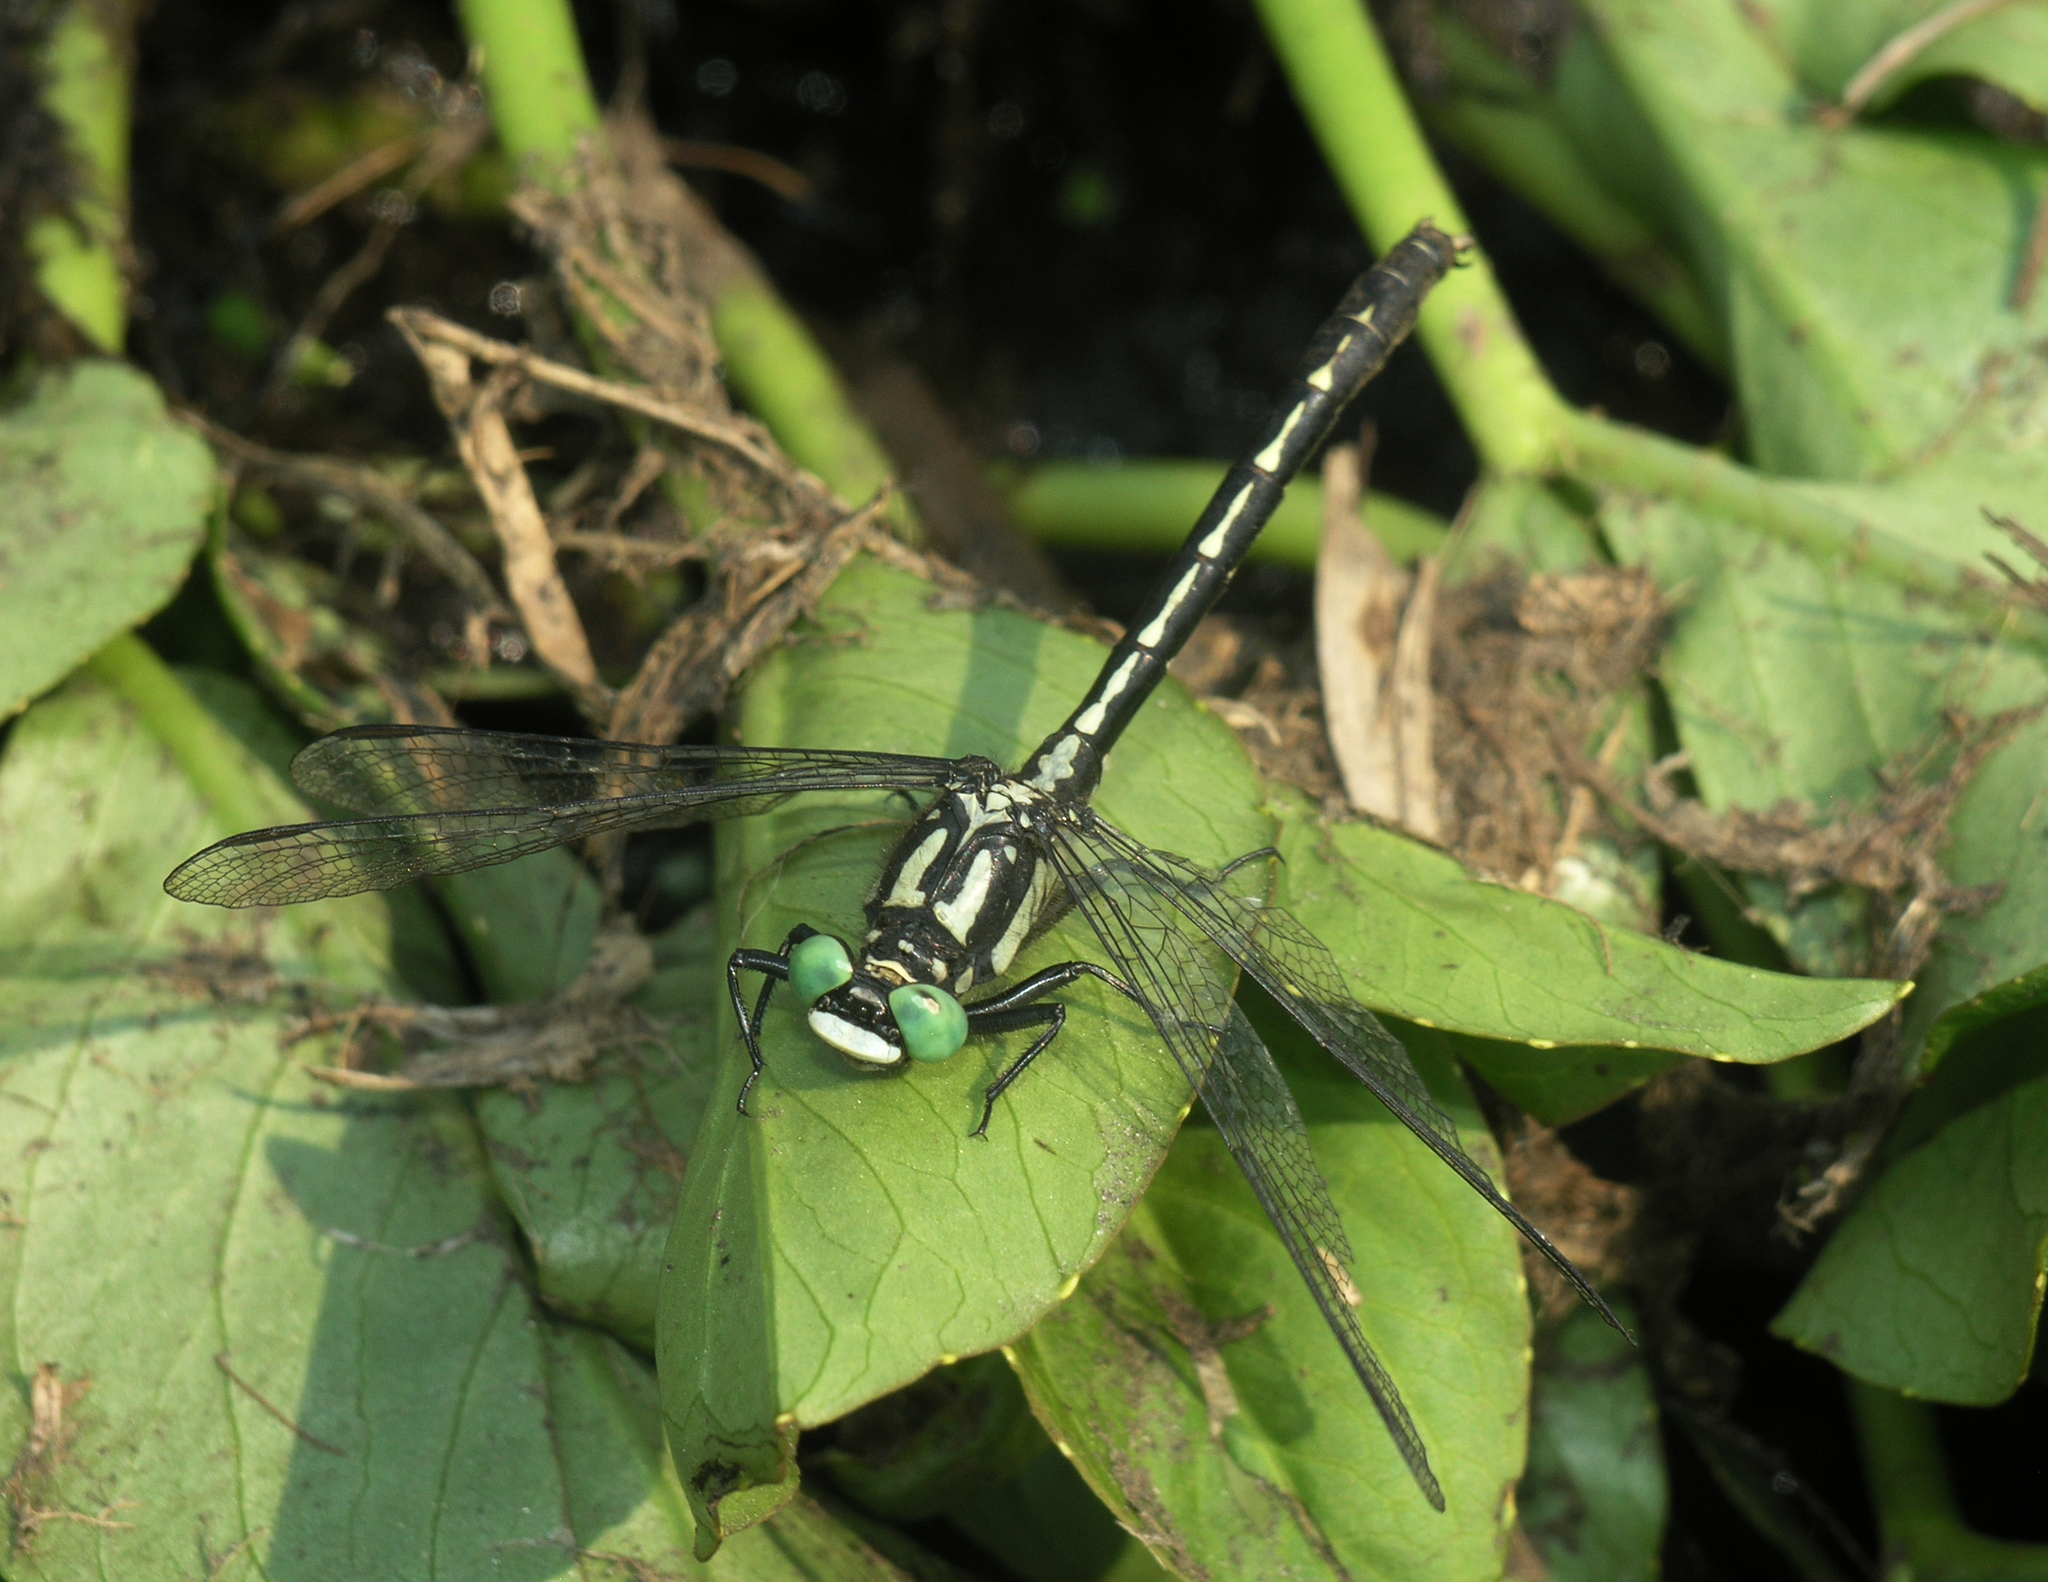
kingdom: Animalia
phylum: Arthropoda
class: Insecta
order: Odonata
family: Gomphidae
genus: Trigomphus
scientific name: Trigomphus nigripes
